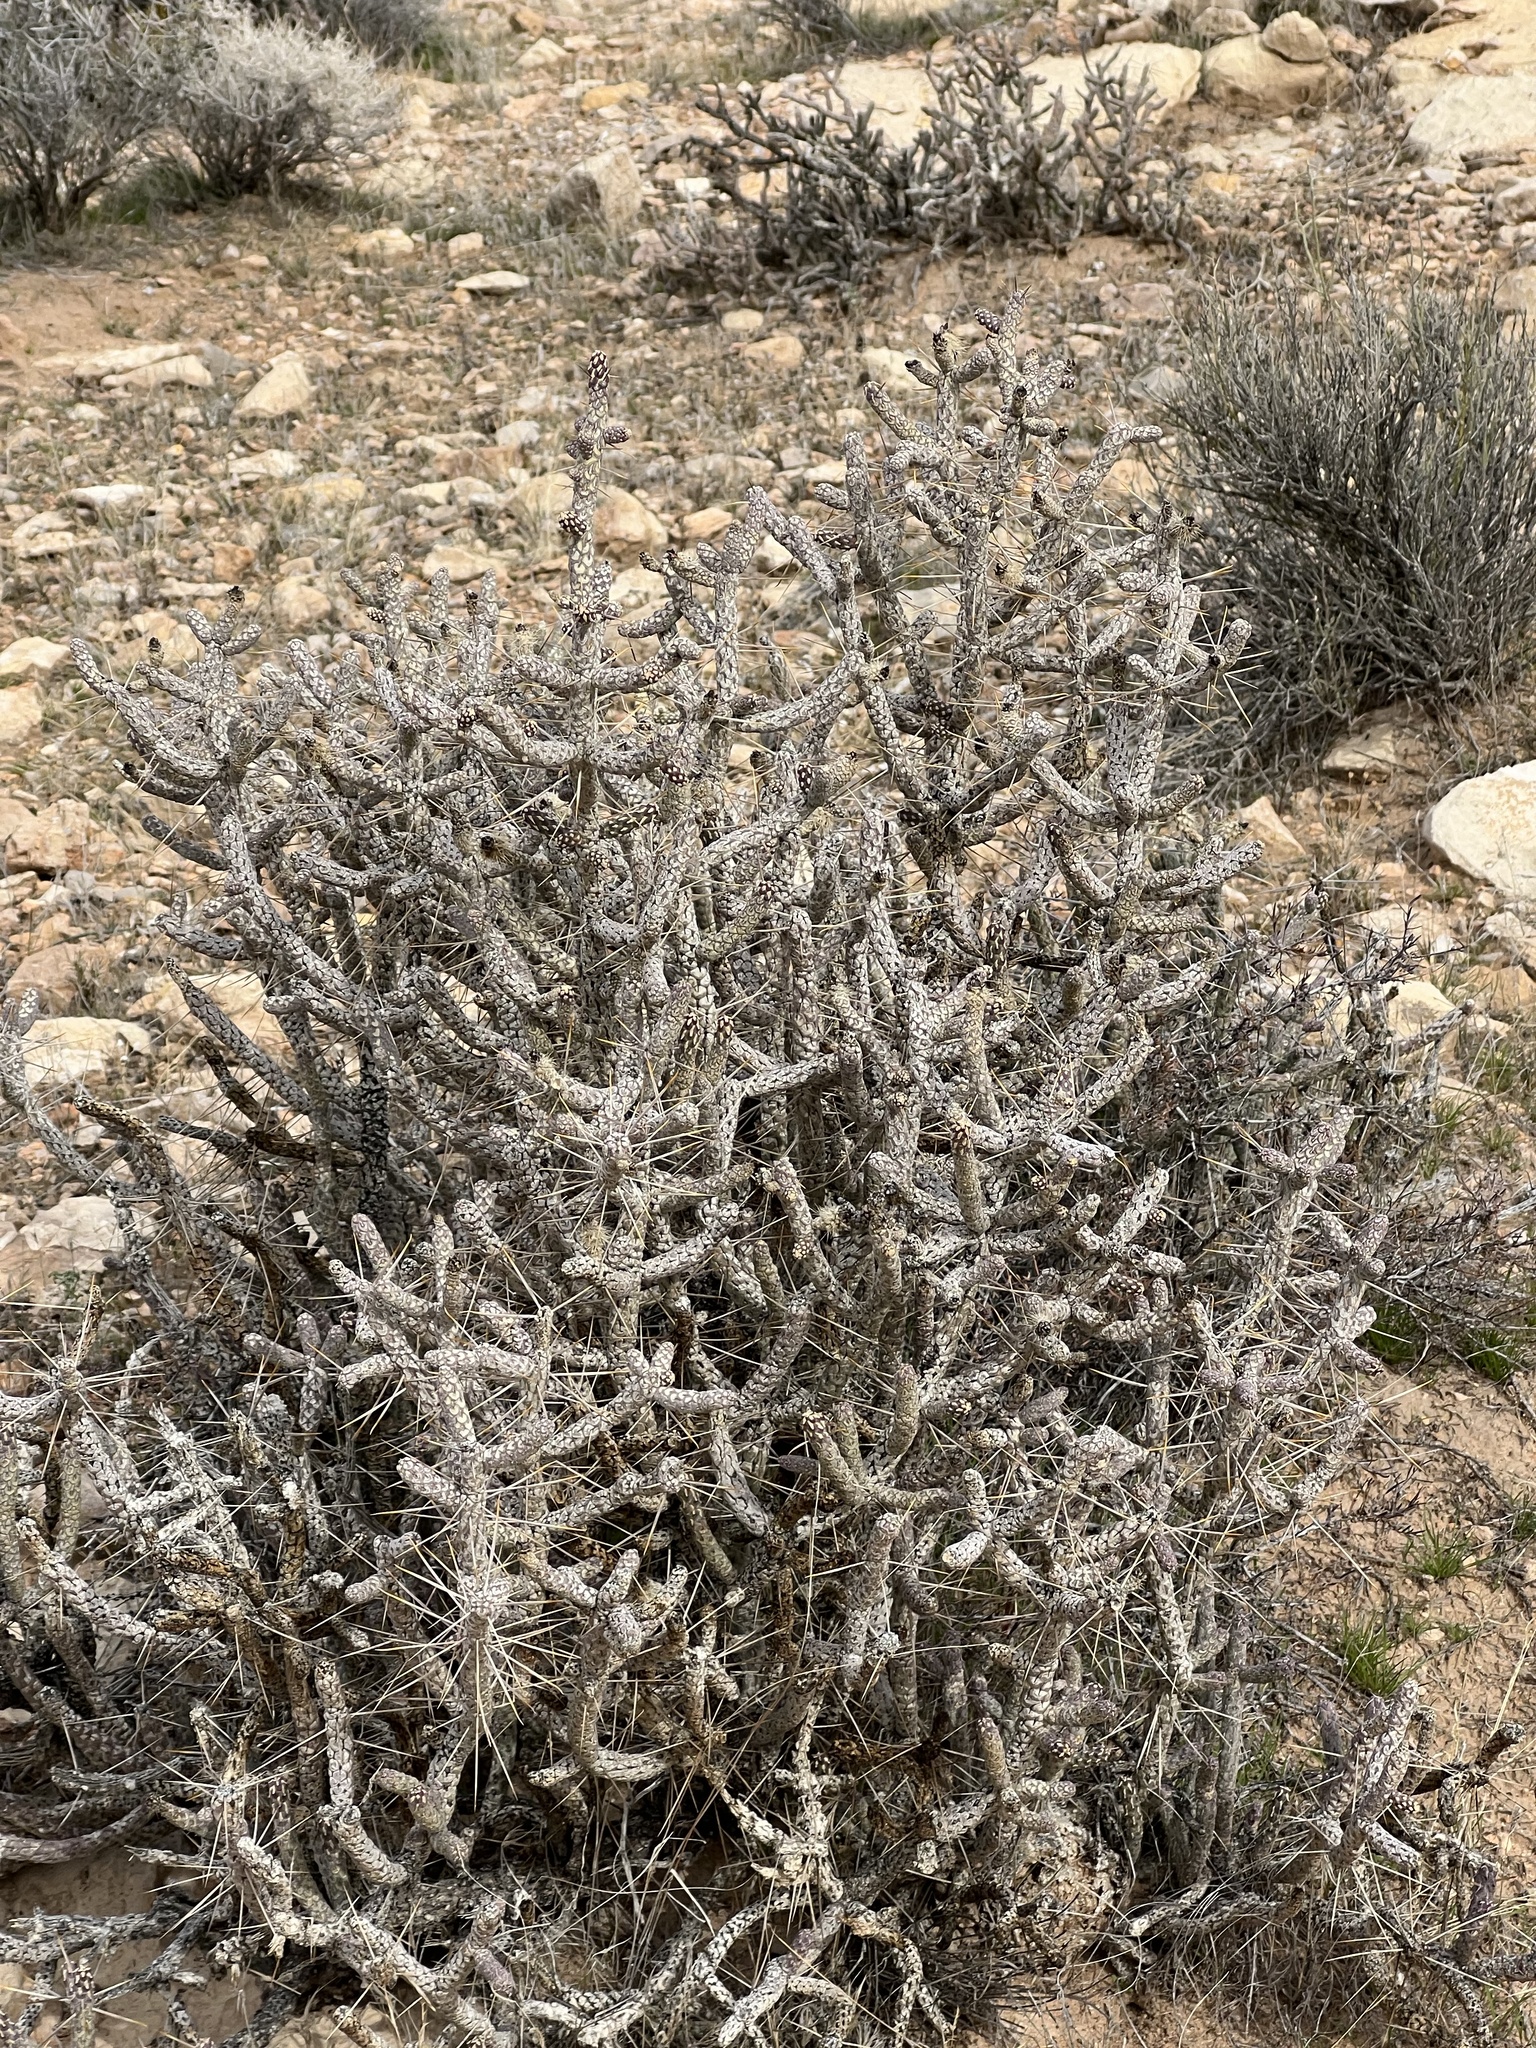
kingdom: Plantae
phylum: Tracheophyta
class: Magnoliopsida
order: Caryophyllales
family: Cactaceae
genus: Cylindropuntia
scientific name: Cylindropuntia ramosissima
